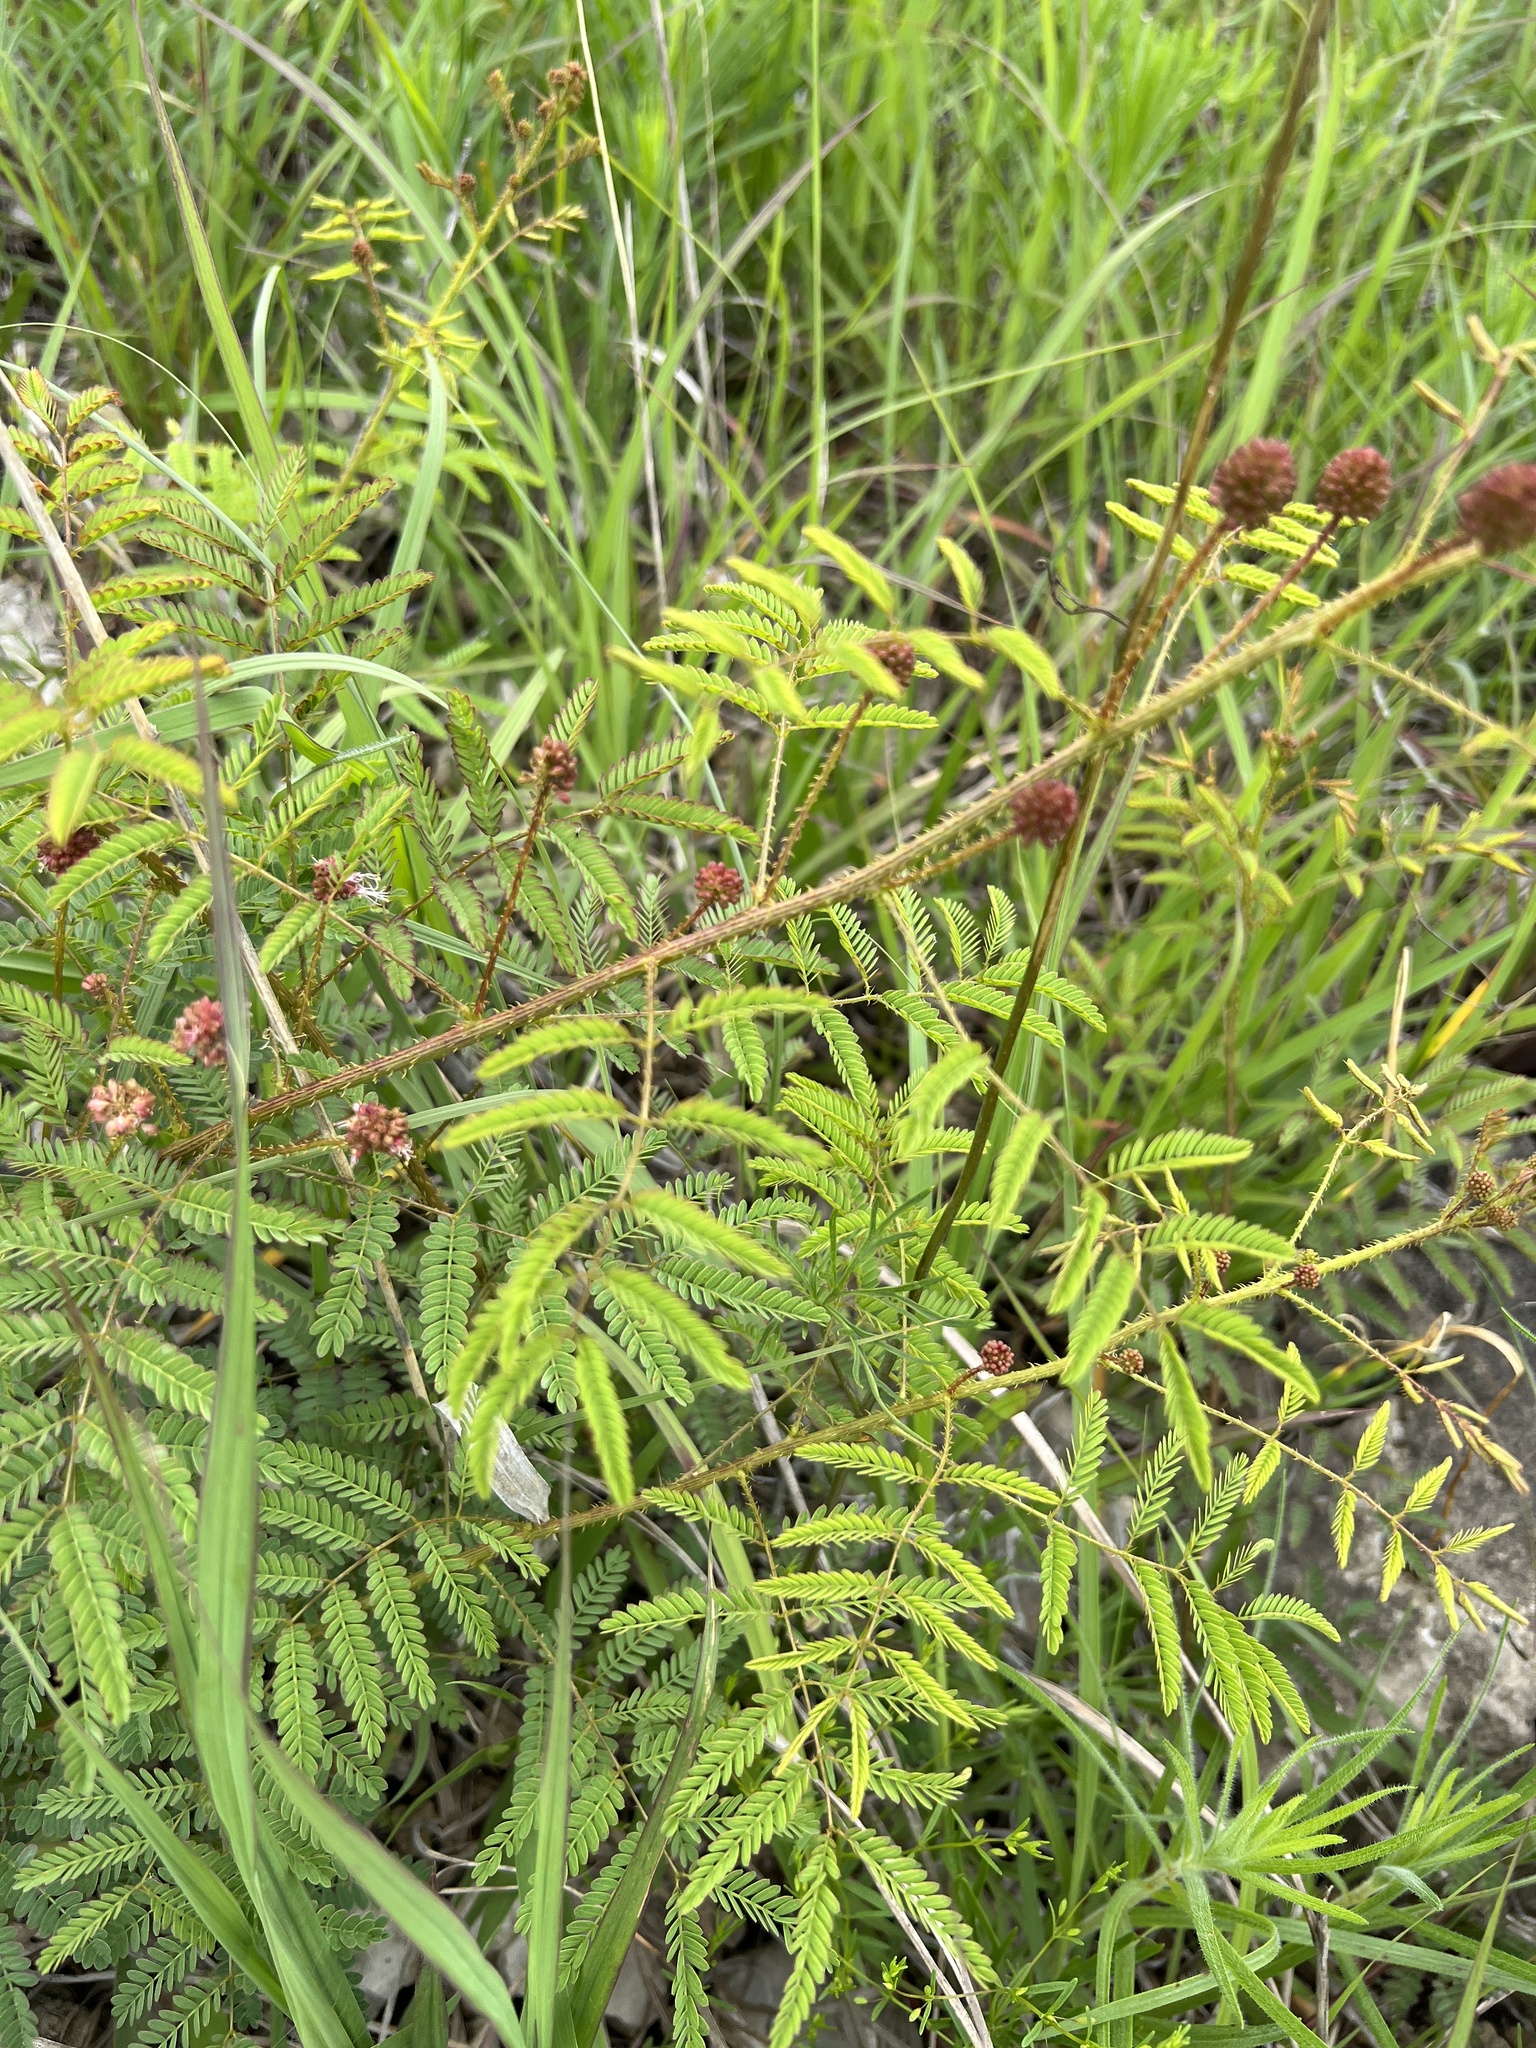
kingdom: Plantae
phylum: Tracheophyta
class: Magnoliopsida
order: Fabales
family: Fabaceae
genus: Mimosa
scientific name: Mimosa quadrivalvis
